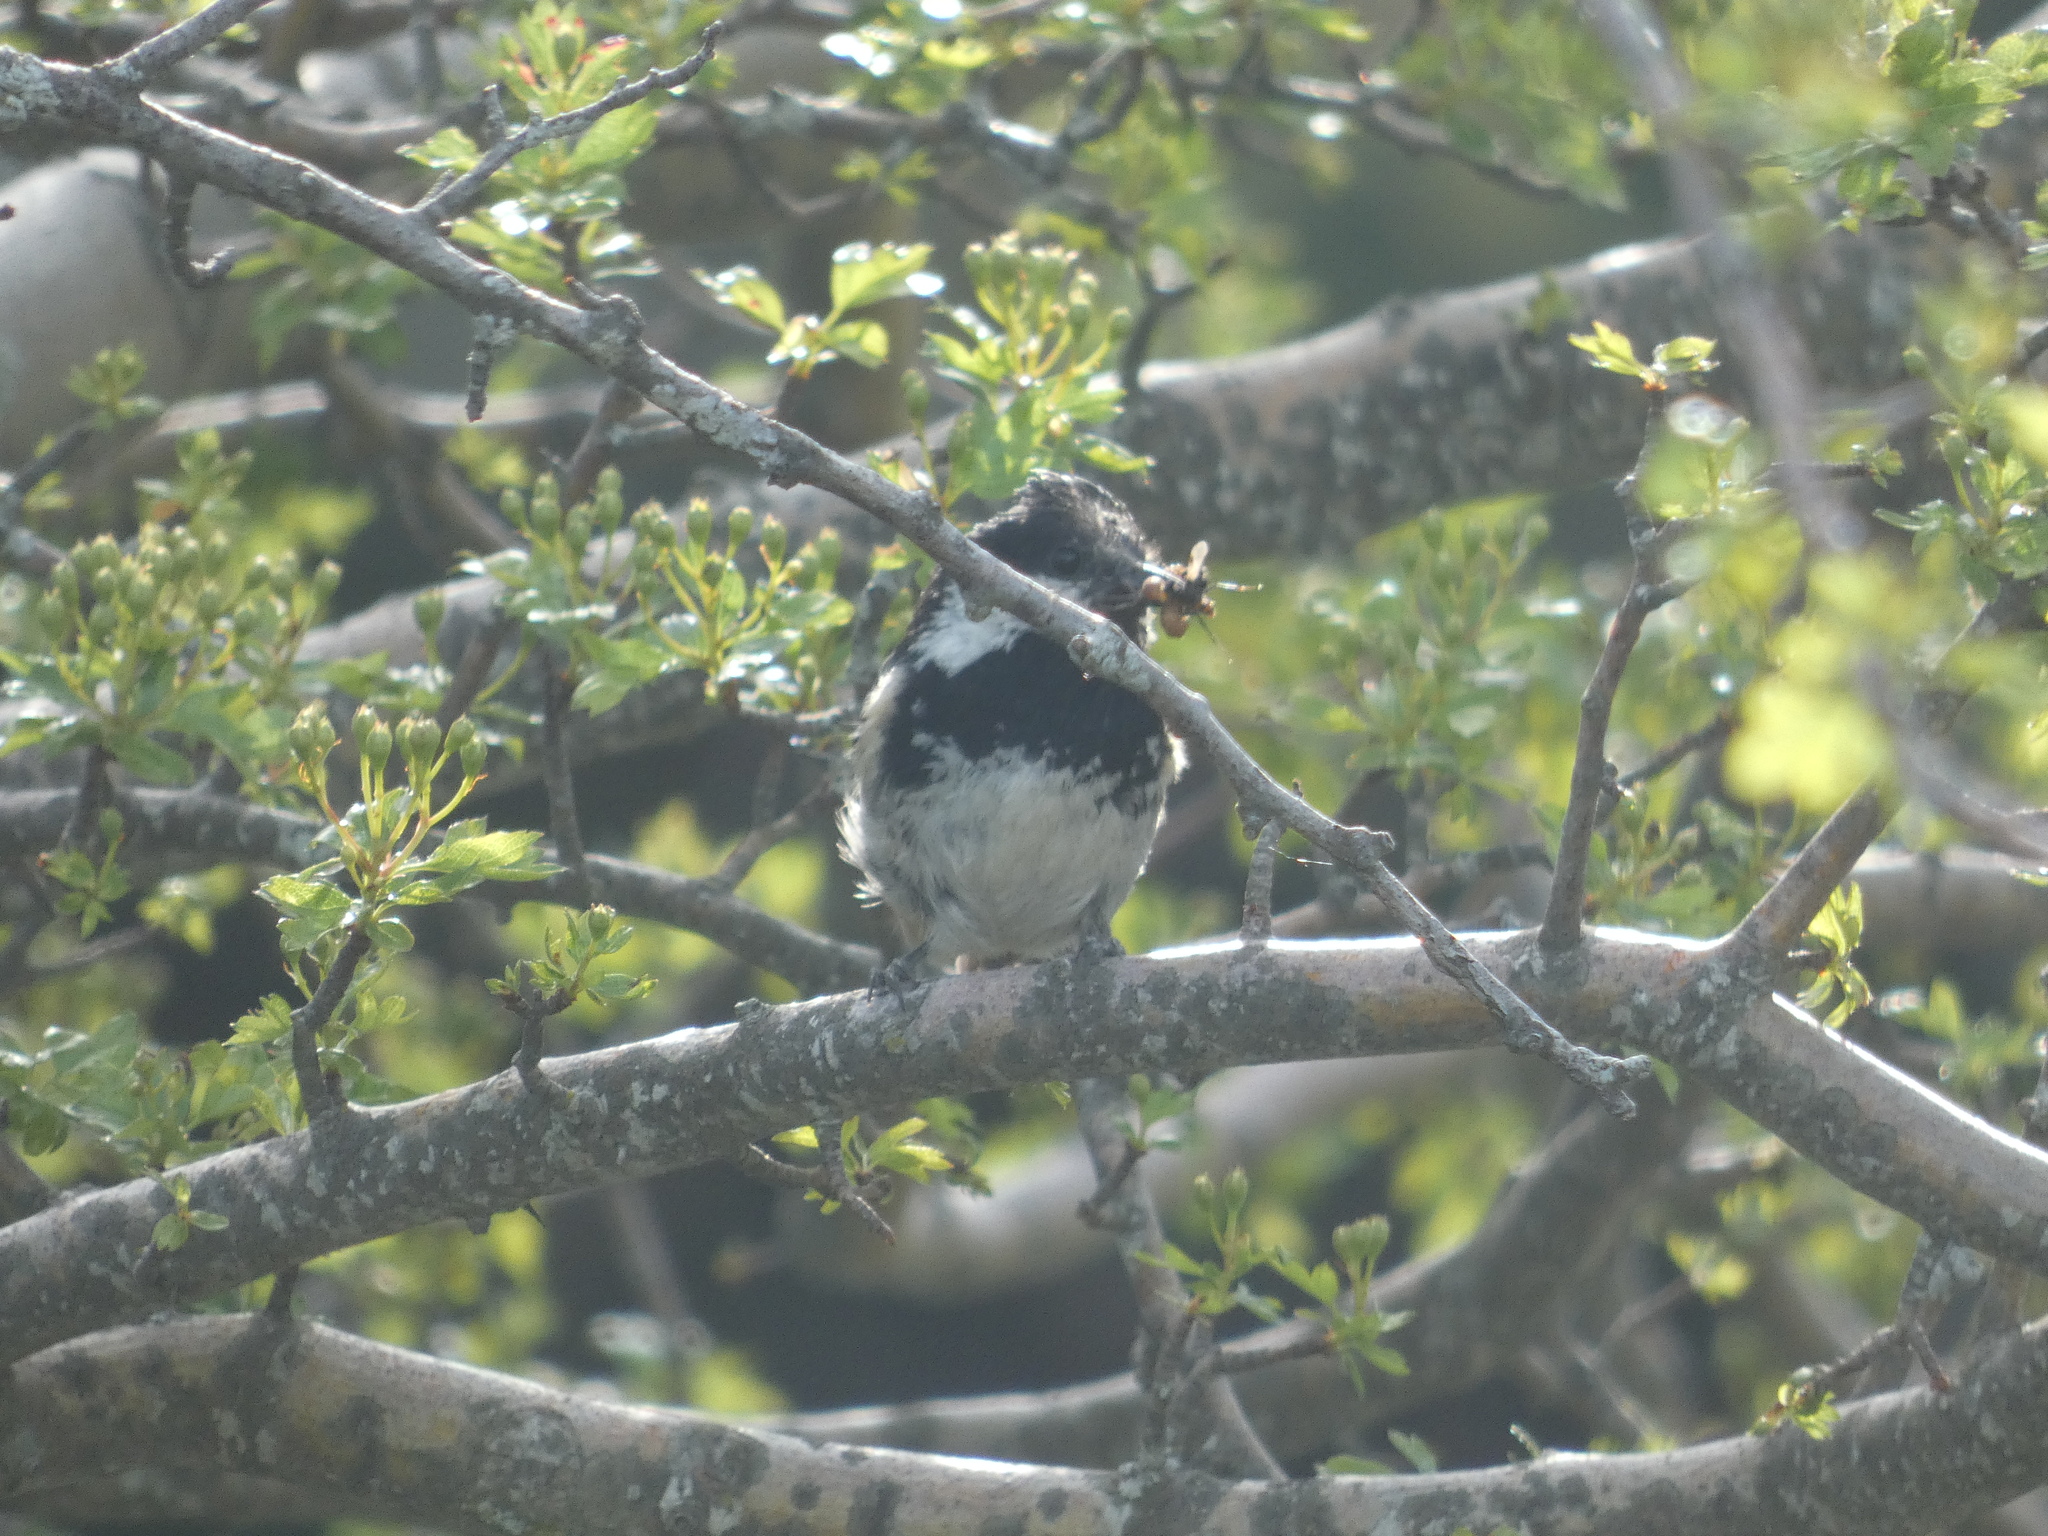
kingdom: Animalia
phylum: Chordata
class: Aves
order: Passeriformes
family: Paridae
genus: Periparus
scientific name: Periparus ater
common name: Coal tit
